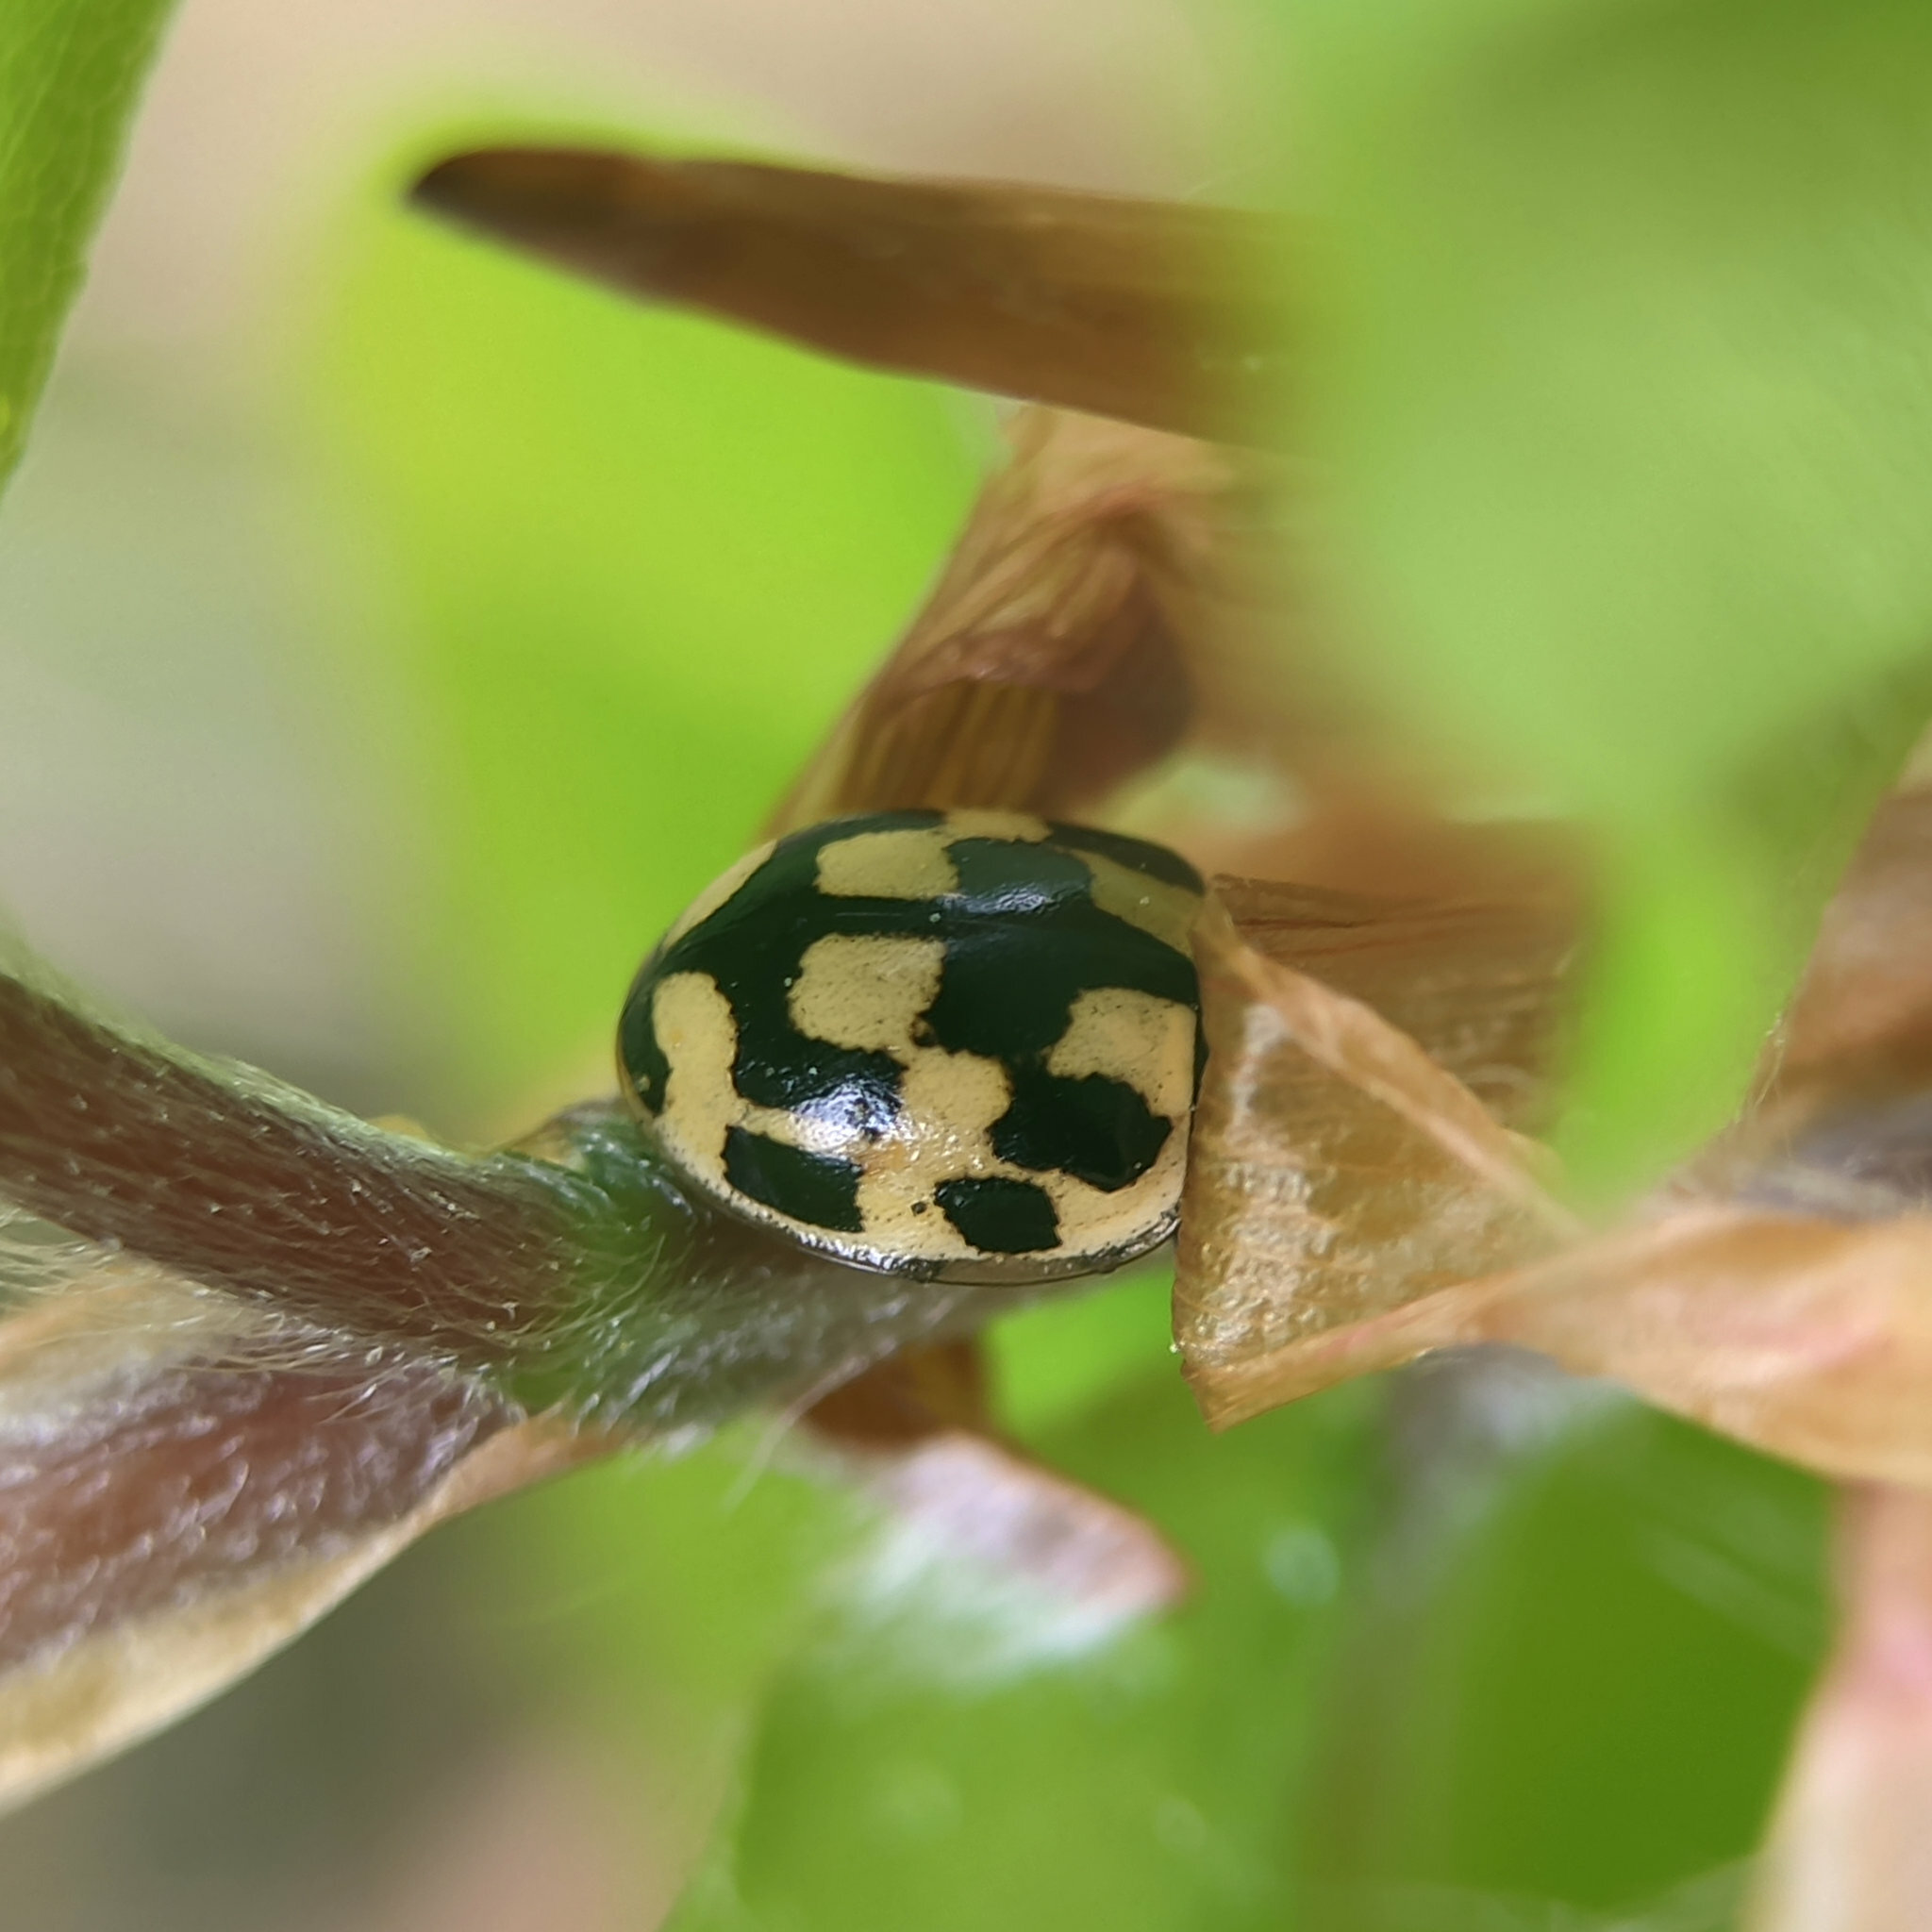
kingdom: Animalia
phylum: Arthropoda
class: Insecta
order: Coleoptera
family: Coccinellidae
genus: Propylaea
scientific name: Propylaea quatuordecimpunctata
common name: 14-spotted ladybird beetle
